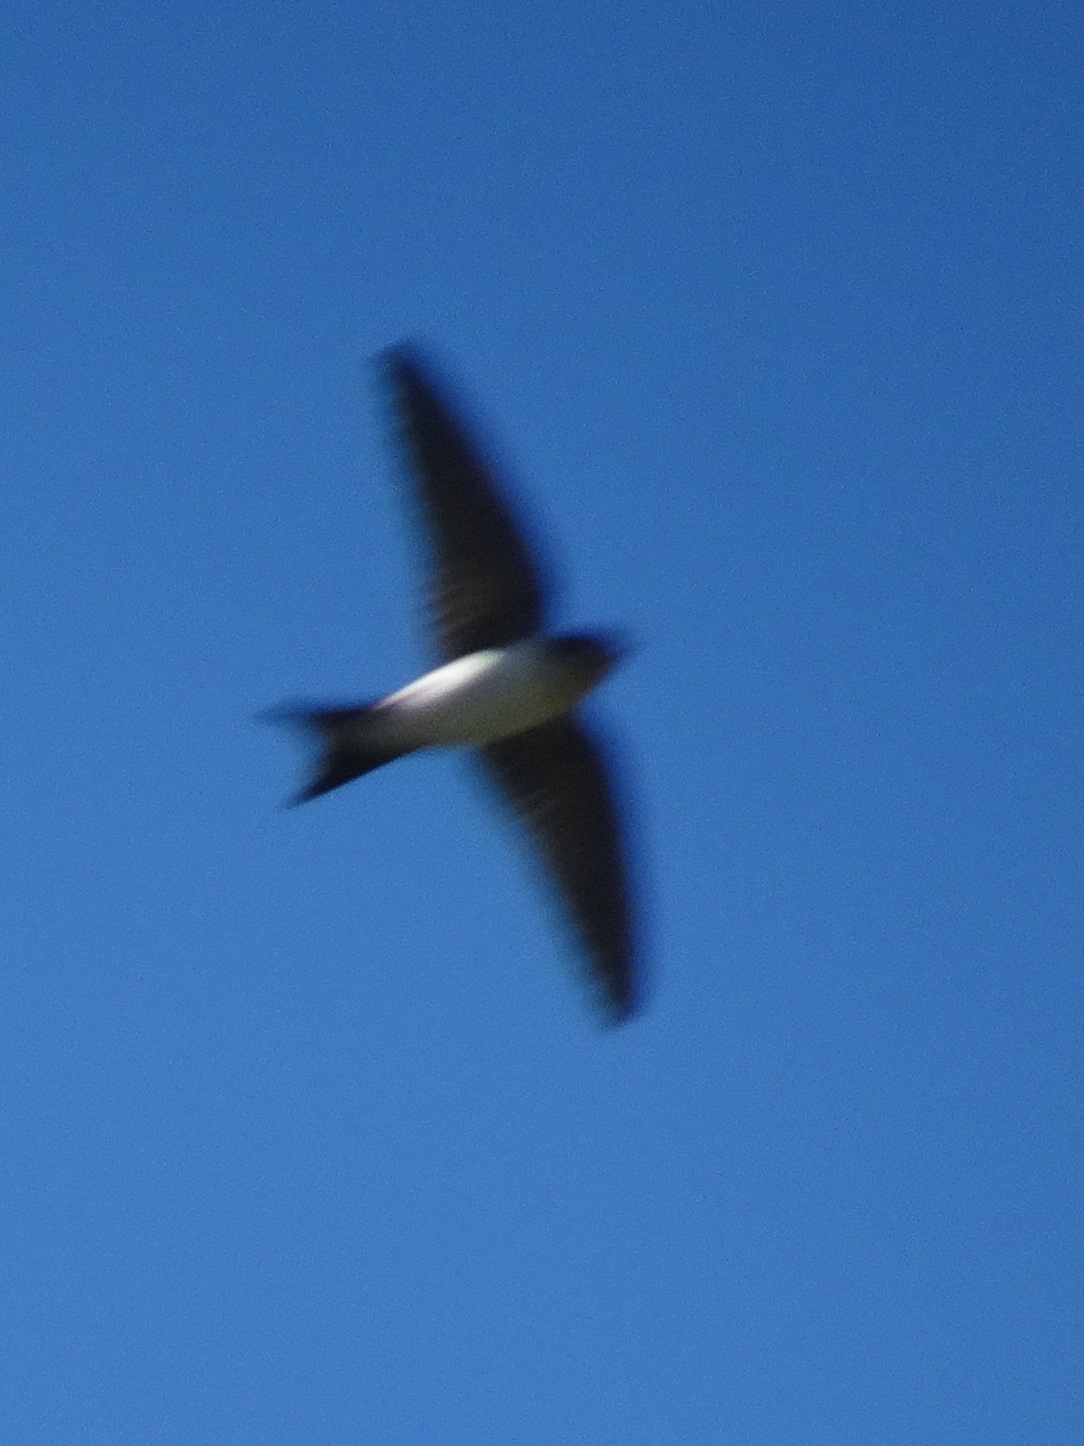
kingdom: Animalia
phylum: Chordata
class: Aves
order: Passeriformes
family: Hirundinidae
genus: Delichon
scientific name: Delichon urbicum
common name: Common house martin
